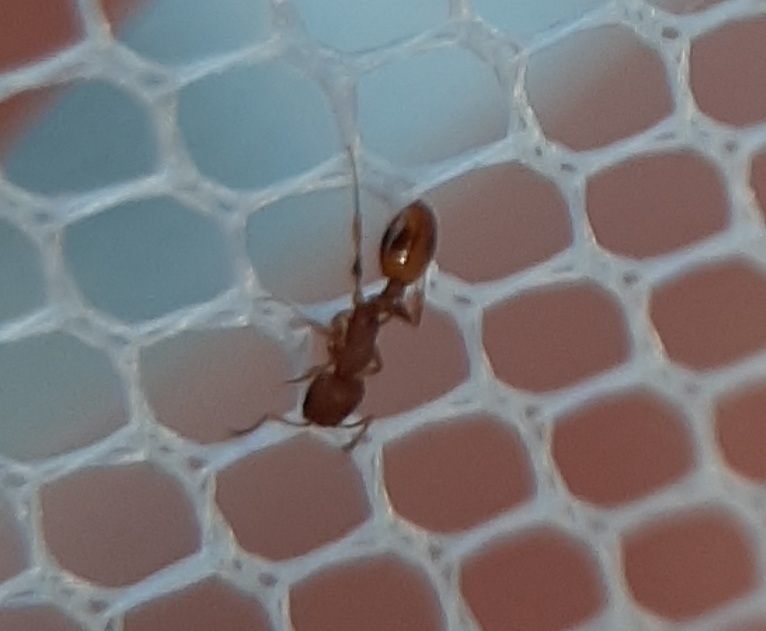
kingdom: Animalia
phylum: Arthropoda
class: Insecta
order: Hymenoptera
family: Formicidae
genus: Temnothorax
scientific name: Temnothorax curvispinosus
